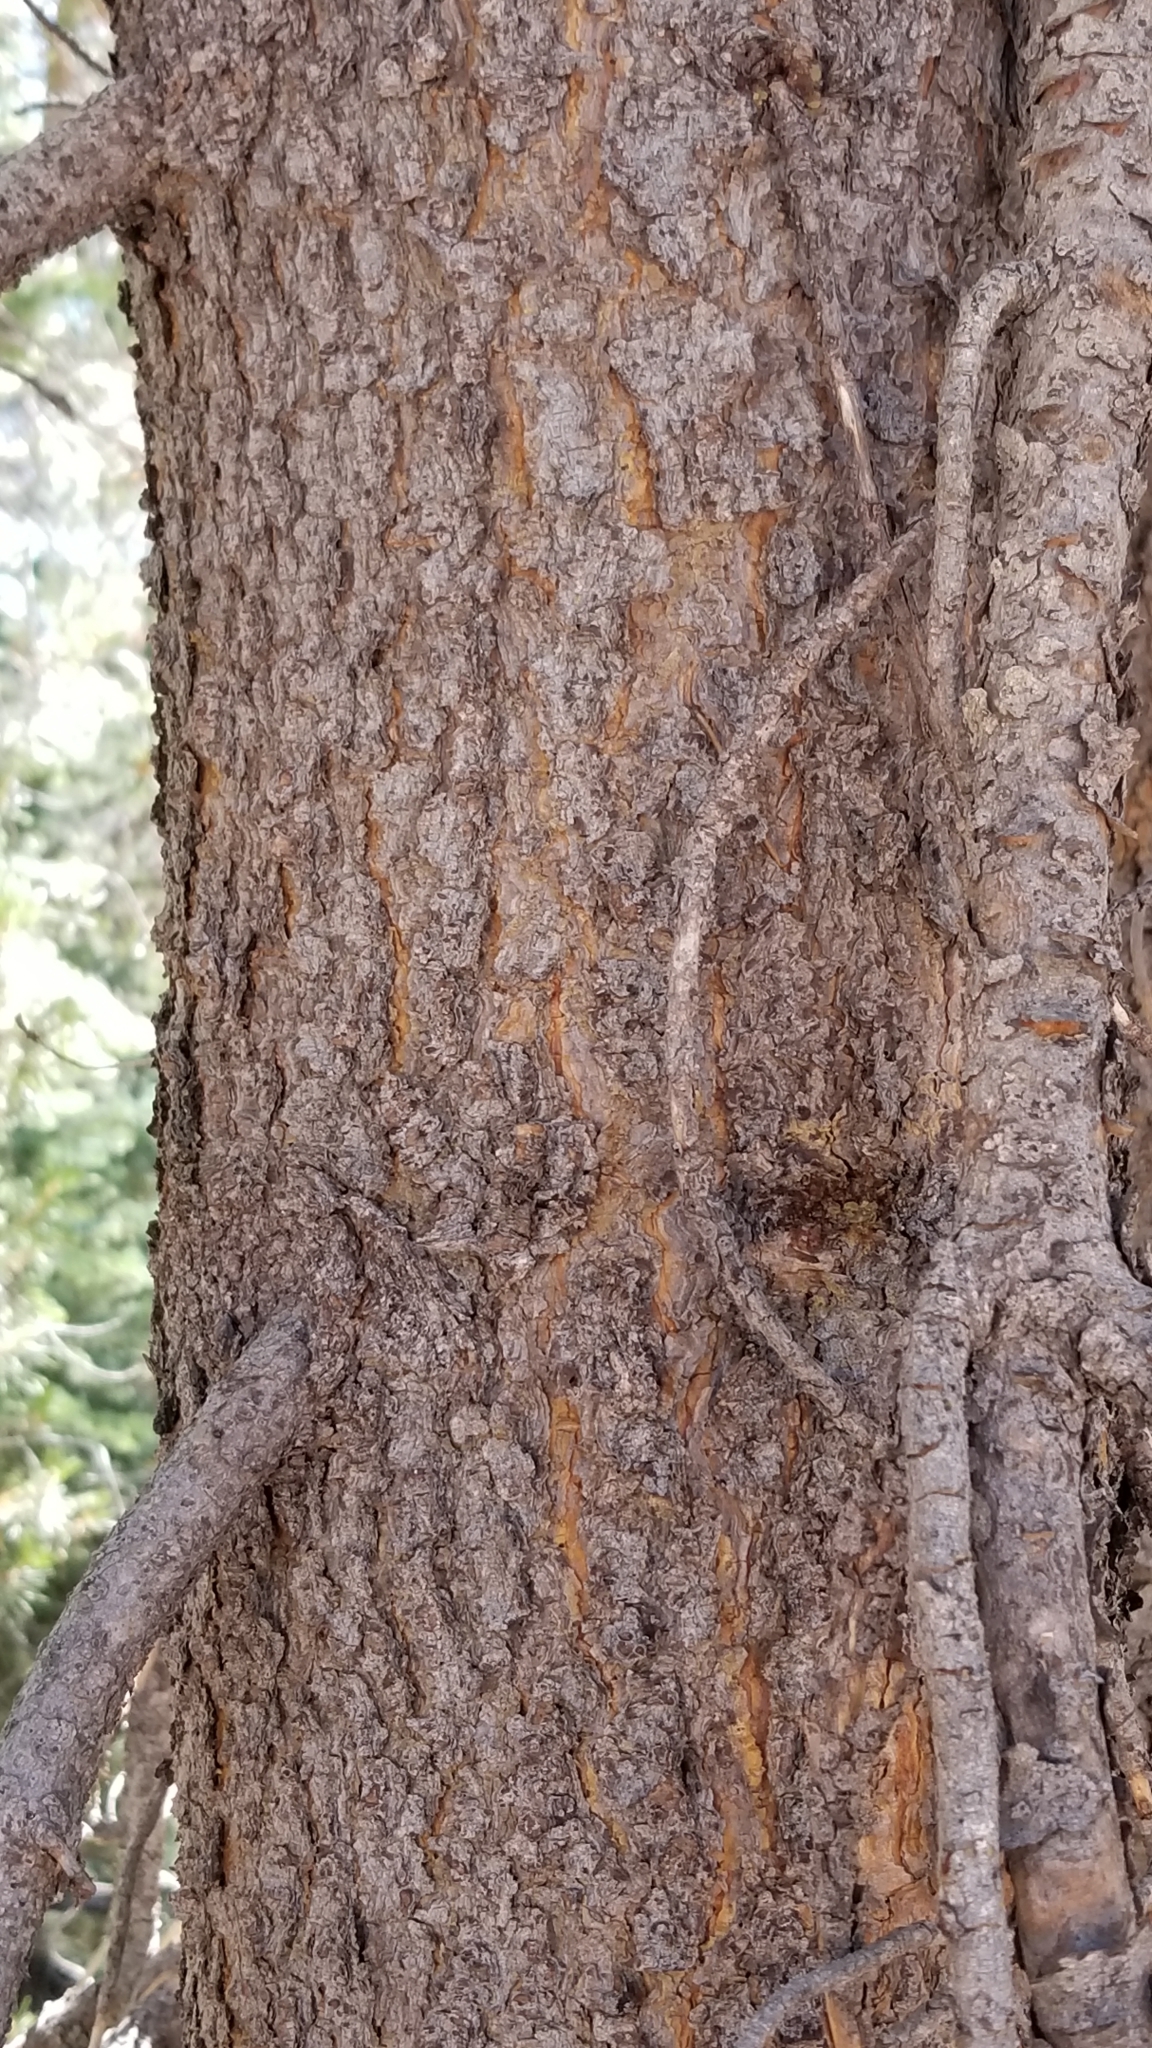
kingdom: Plantae
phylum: Tracheophyta
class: Pinopsida
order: Pinales
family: Pinaceae
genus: Pinus
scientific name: Pinus contorta
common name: Lodgepole pine
